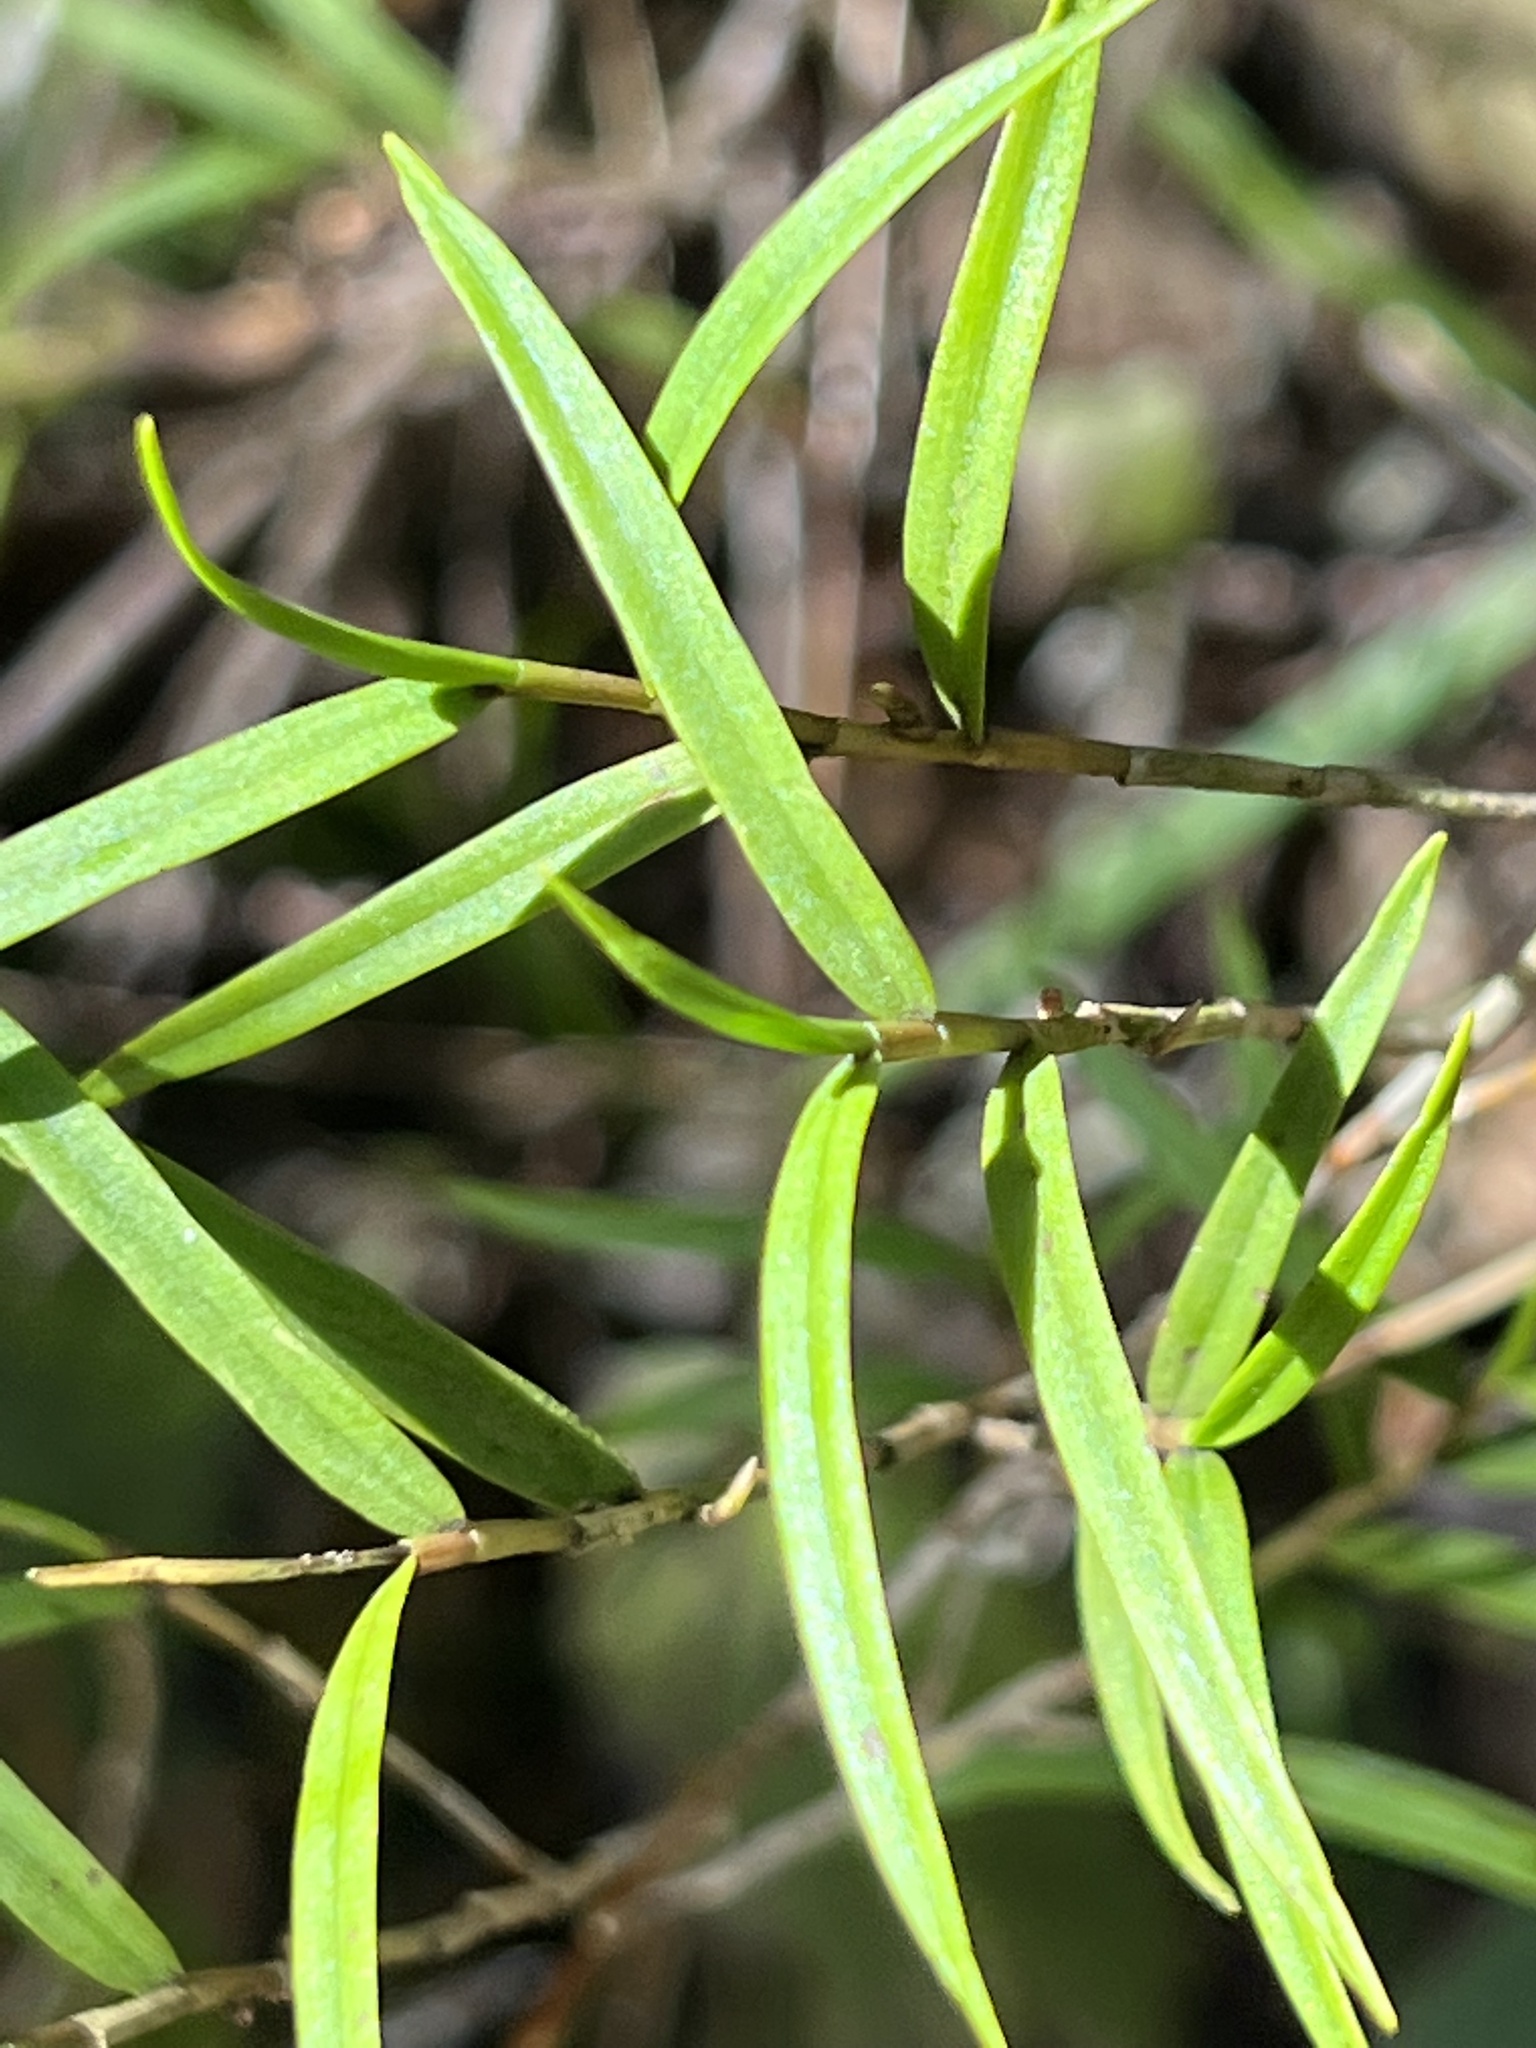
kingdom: Plantae
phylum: Tracheophyta
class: Liliopsida
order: Asparagales
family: Orchidaceae
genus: Dendrobium
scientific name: Dendrobium cunninghamii
